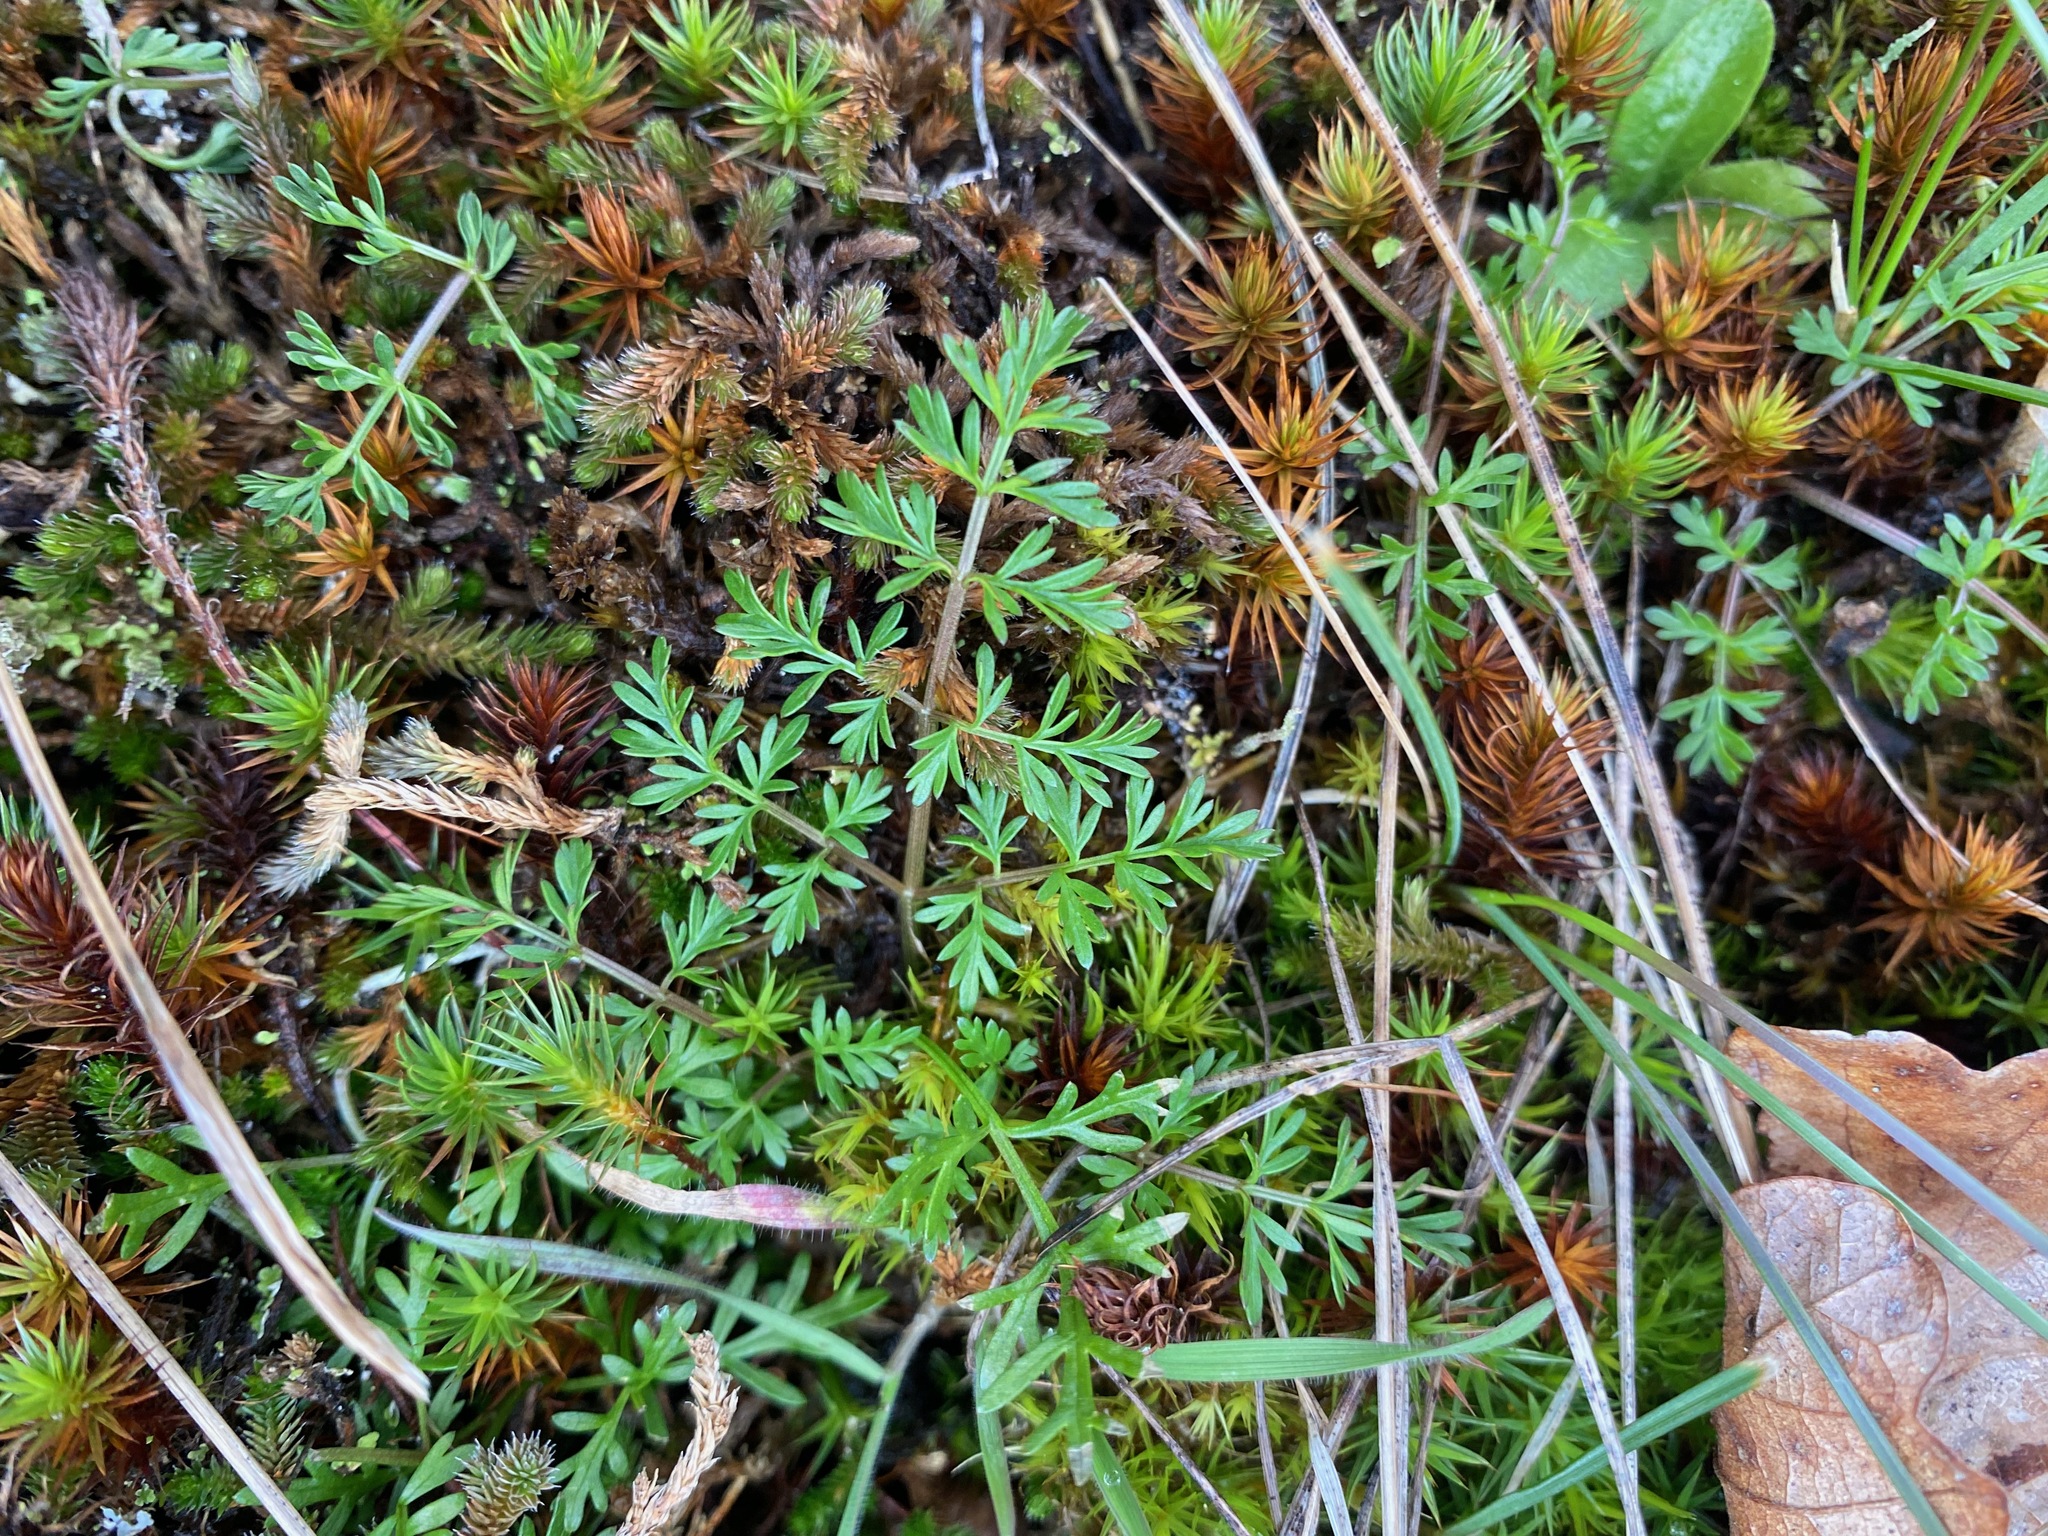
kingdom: Plantae
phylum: Tracheophyta
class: Magnoliopsida
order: Apiales
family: Apiaceae
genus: Lomatium
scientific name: Lomatium utriculatum
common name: Fine-leaf desert-parsley
